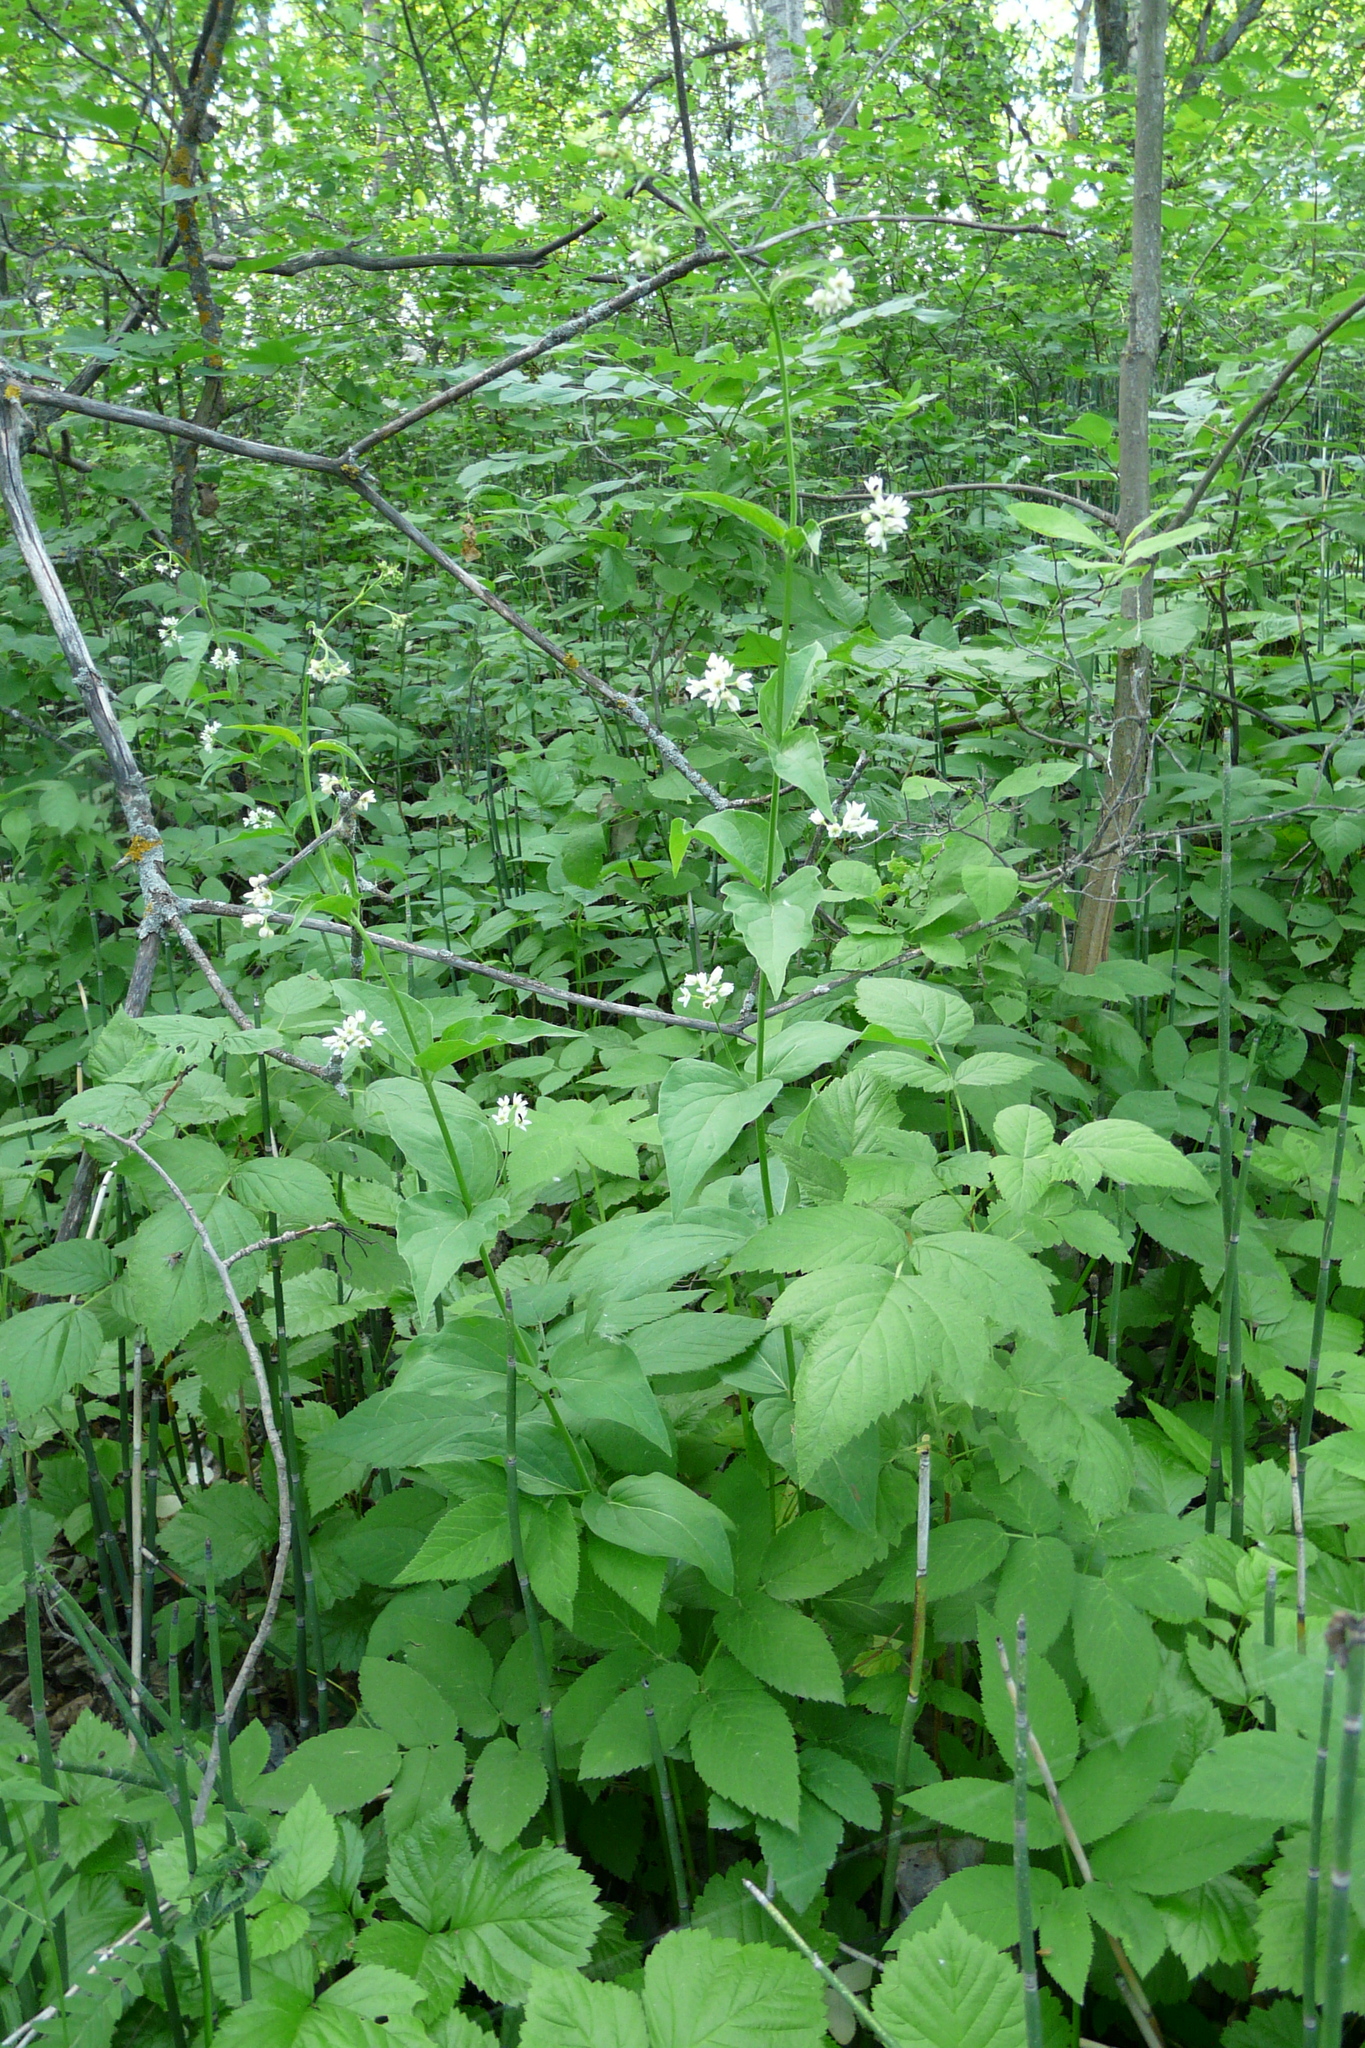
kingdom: Plantae
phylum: Tracheophyta
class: Magnoliopsida
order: Gentianales
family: Apocynaceae
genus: Vincetoxicum
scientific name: Vincetoxicum hirundinaria
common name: White swallowwort
